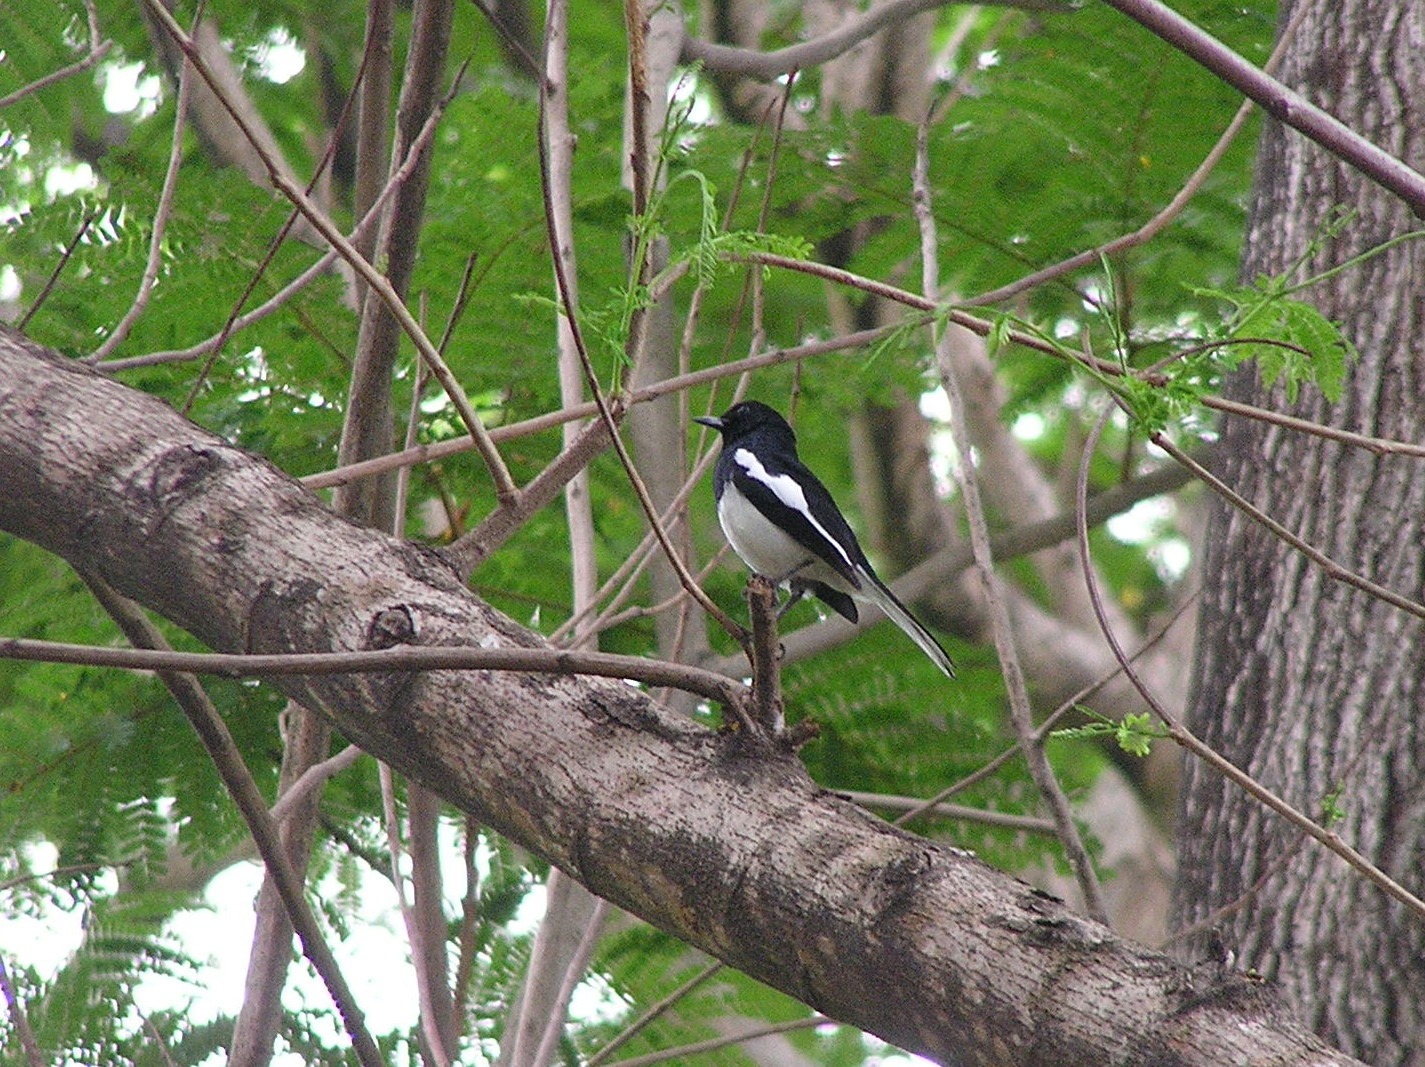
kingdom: Animalia
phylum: Chordata
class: Aves
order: Passeriformes
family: Muscicapidae
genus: Copsychus
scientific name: Copsychus saularis
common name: Oriental magpie-robin
